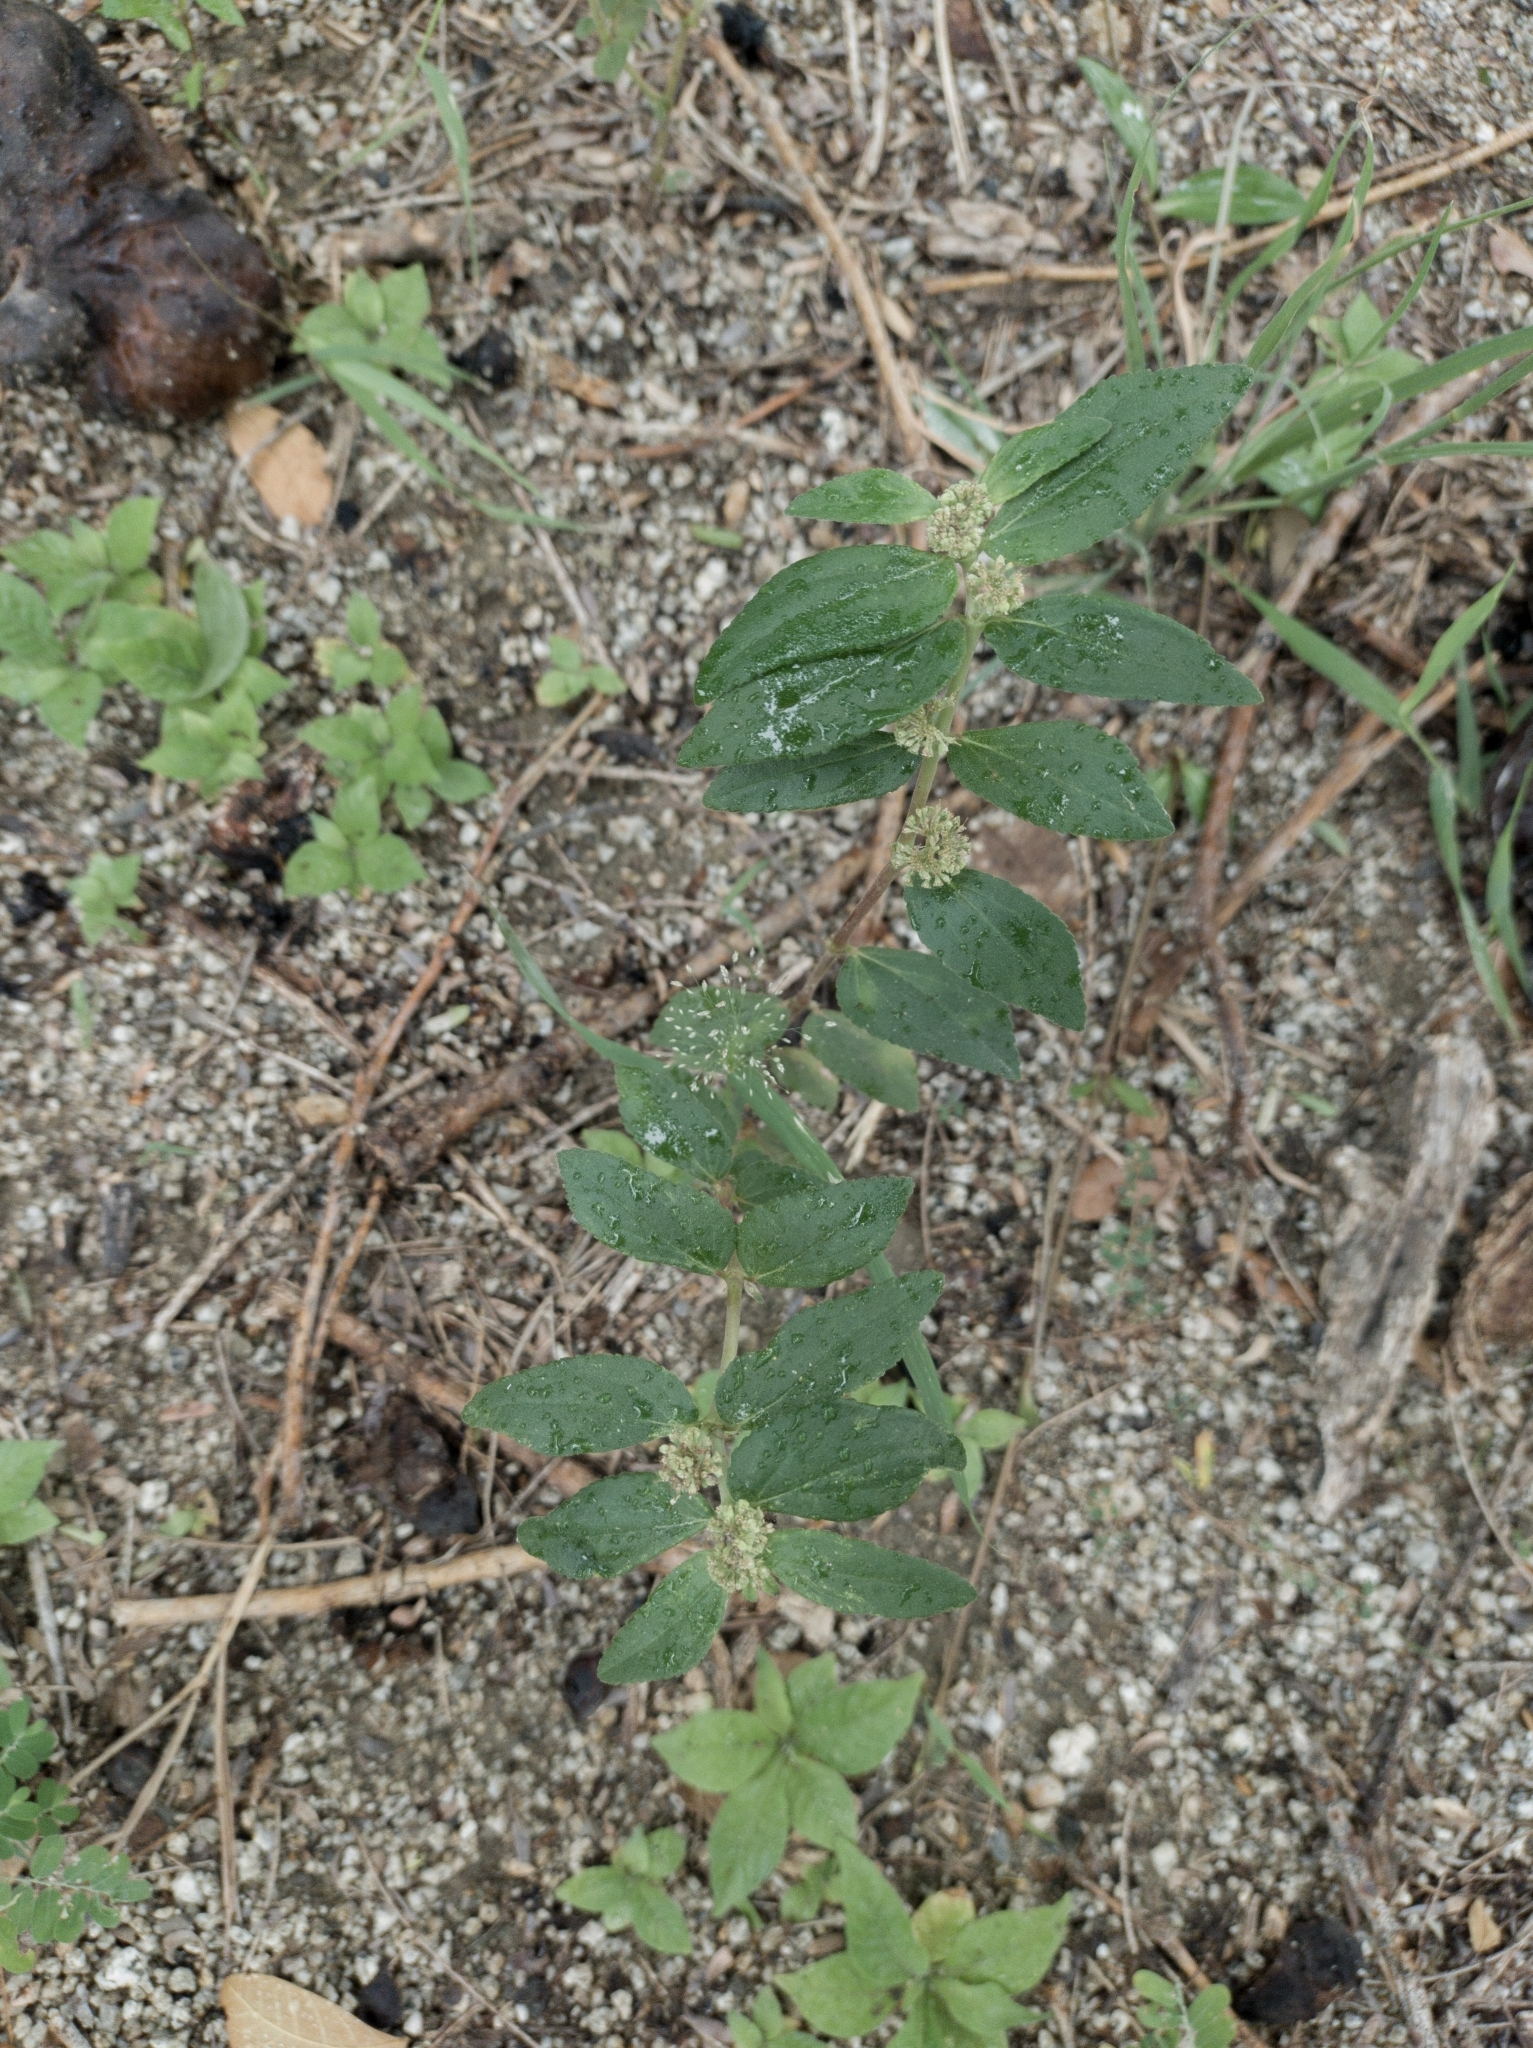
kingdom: Plantae
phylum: Tracheophyta
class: Magnoliopsida
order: Malpighiales
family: Euphorbiaceae
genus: Euphorbia
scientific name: Euphorbia hirta
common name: Pillpod sandmat
